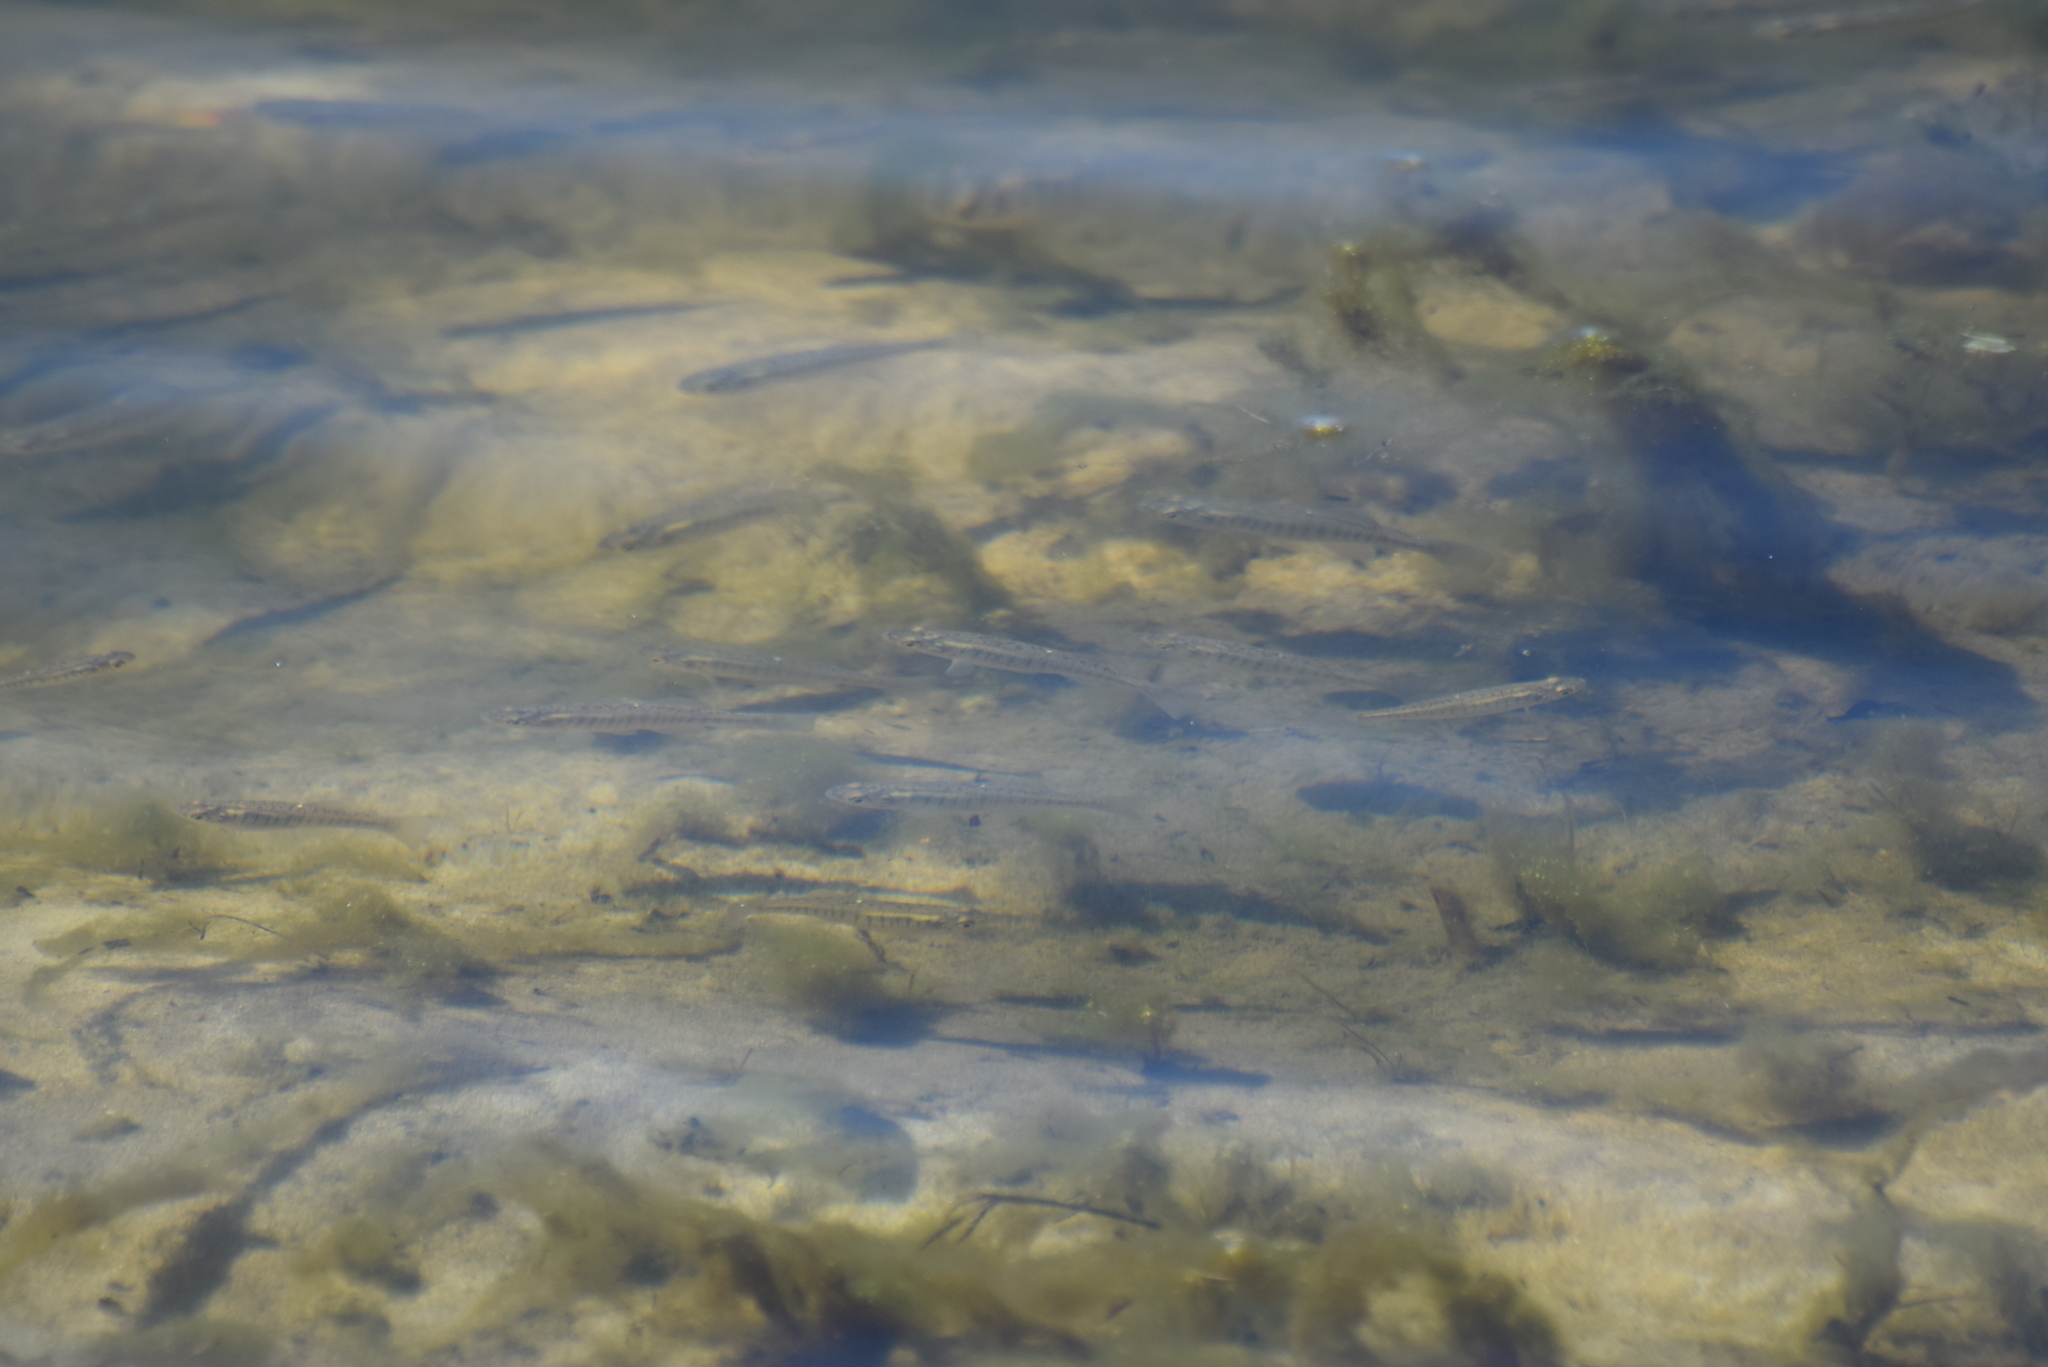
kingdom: Animalia
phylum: Chordata
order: Cyprinodontiformes
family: Fundulidae
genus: Fundulus
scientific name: Fundulus diaphanus
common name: Banded killifish
